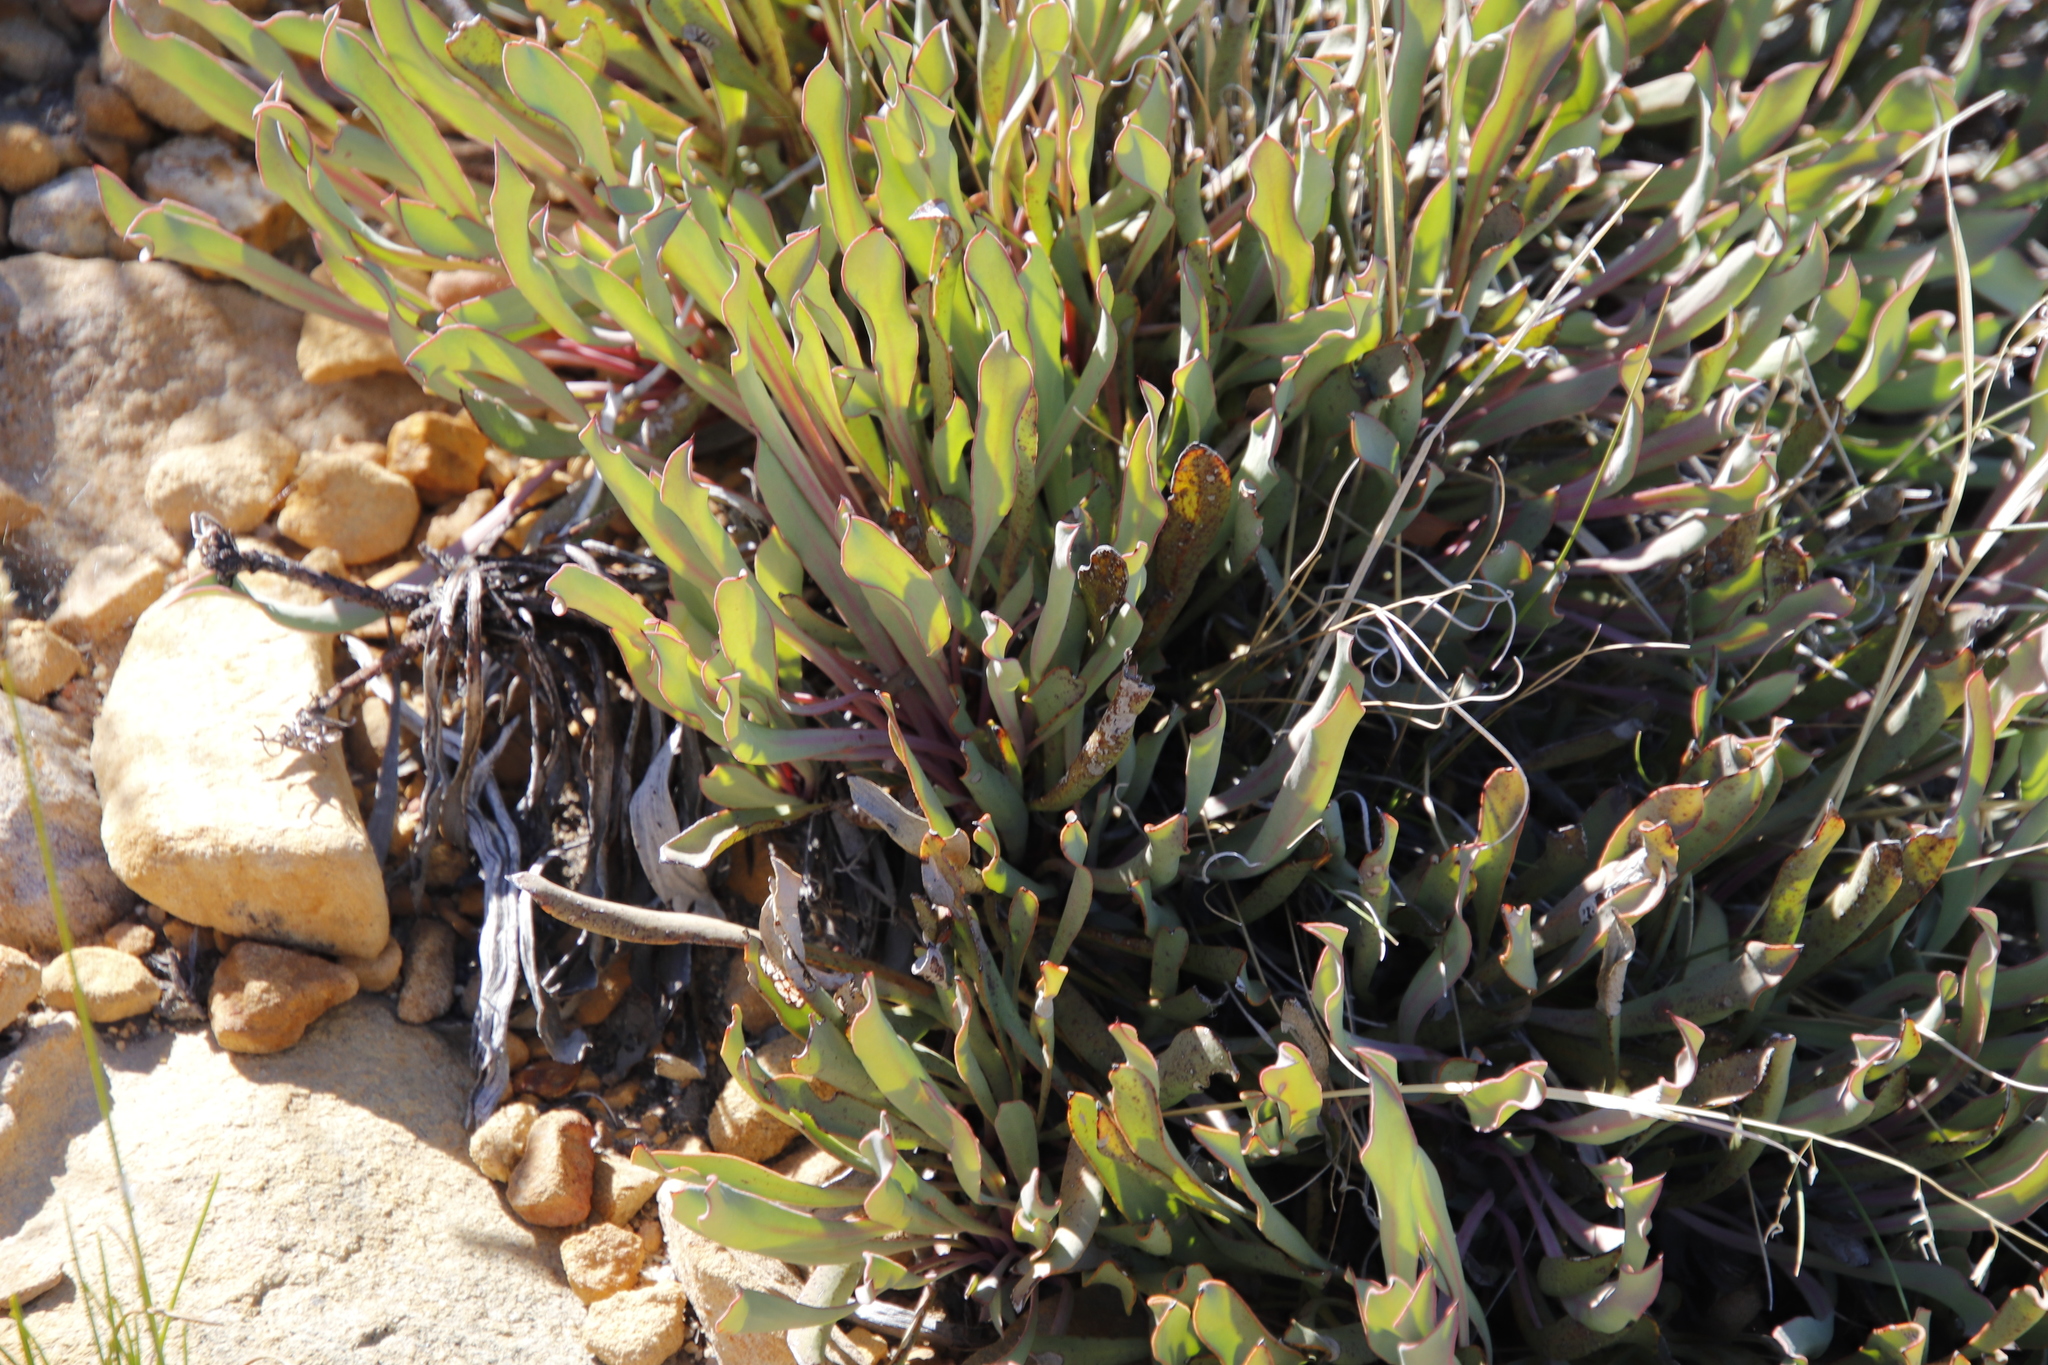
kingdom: Plantae
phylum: Tracheophyta
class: Magnoliopsida
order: Proteales
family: Proteaceae
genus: Protea
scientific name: Protea laevis
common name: Smooth-leaf sugarbush
